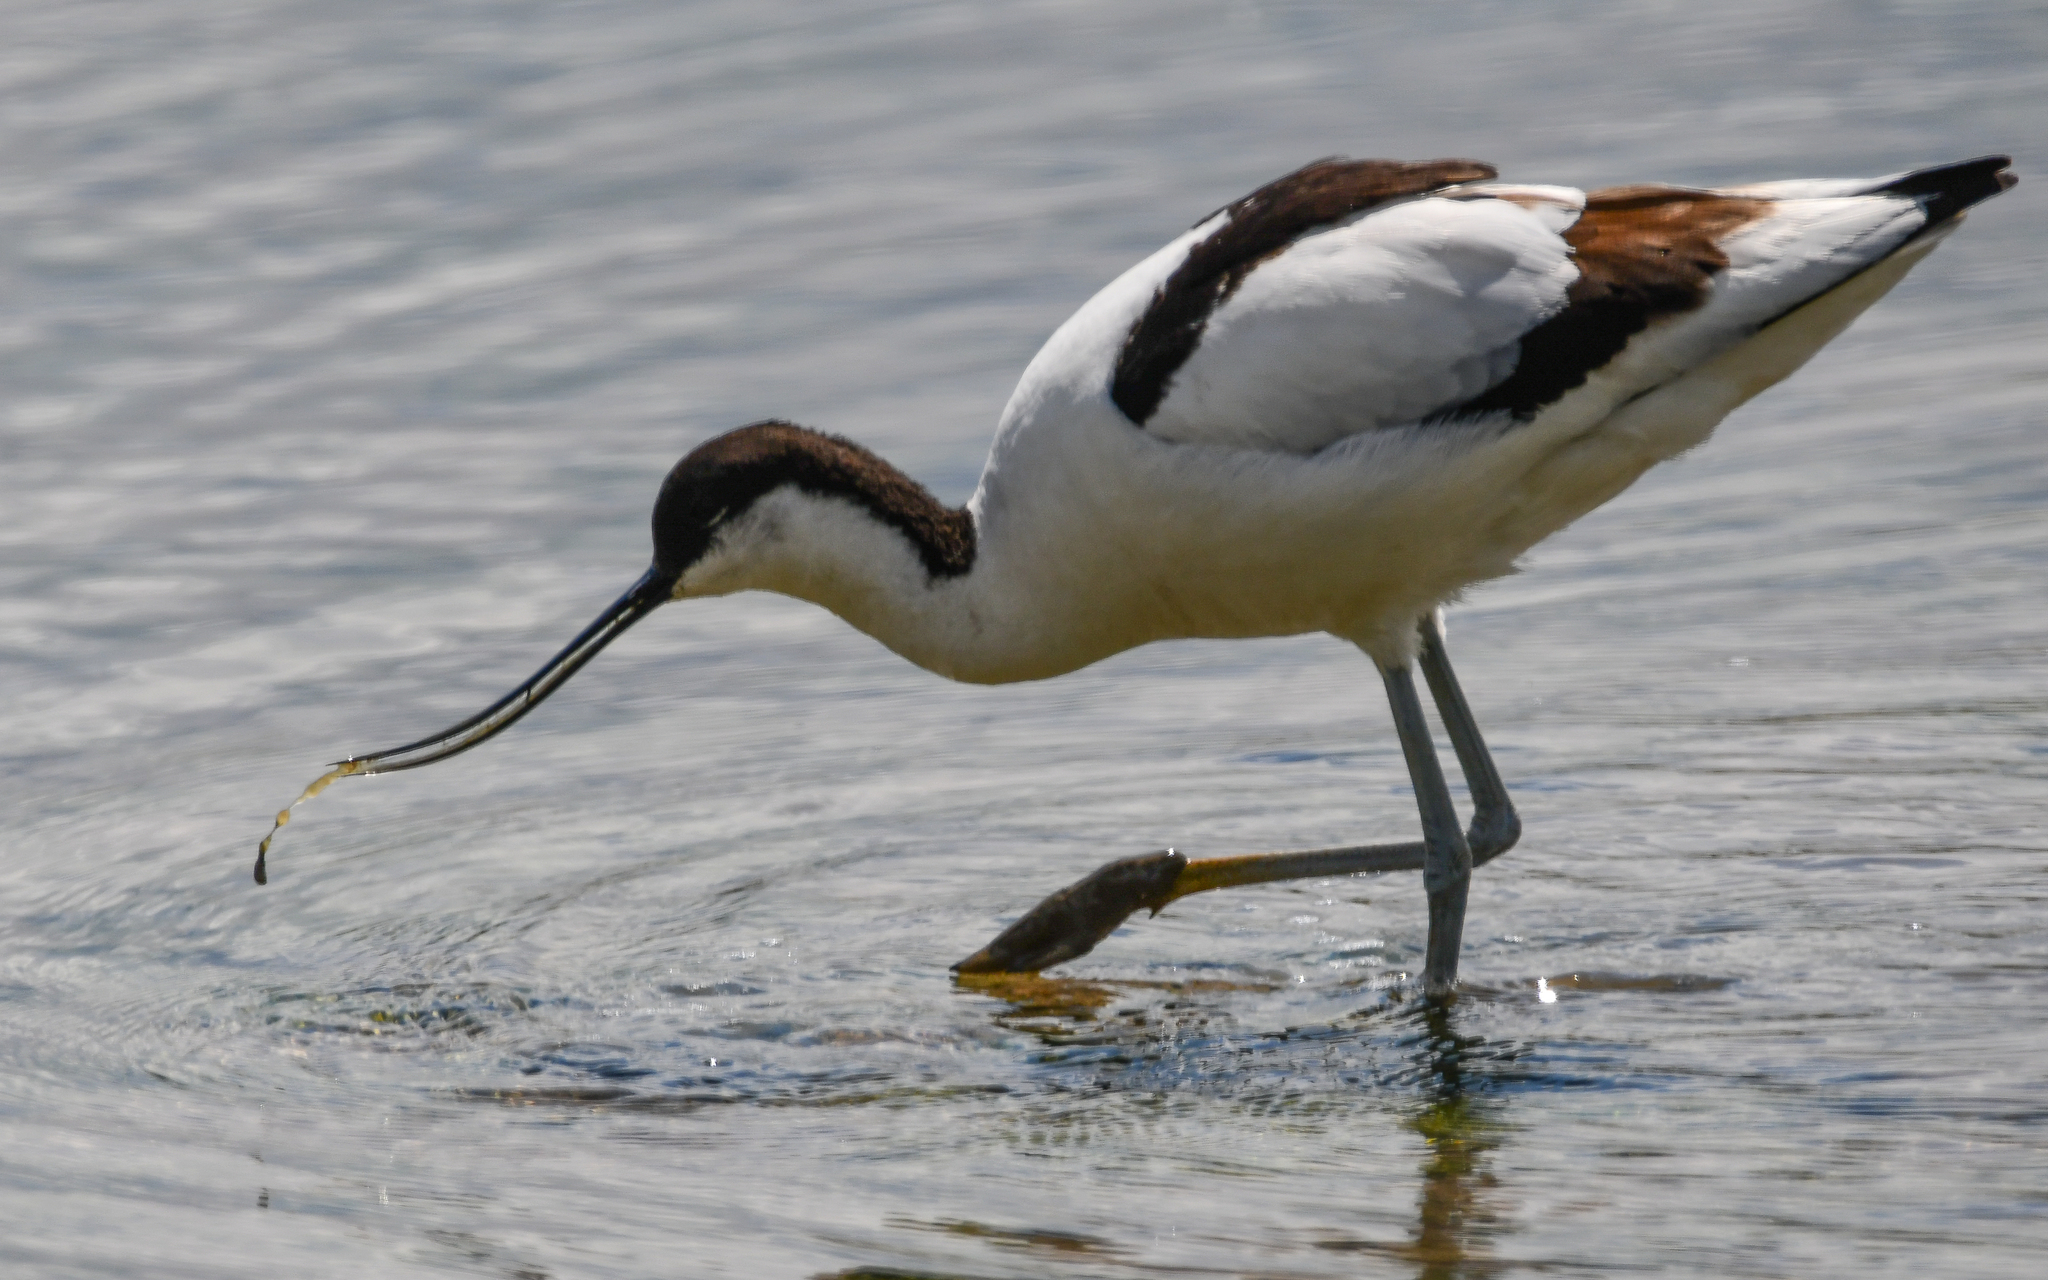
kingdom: Animalia
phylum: Chordata
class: Aves
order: Charadriiformes
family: Recurvirostridae
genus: Recurvirostra
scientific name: Recurvirostra avosetta
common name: Pied avocet
